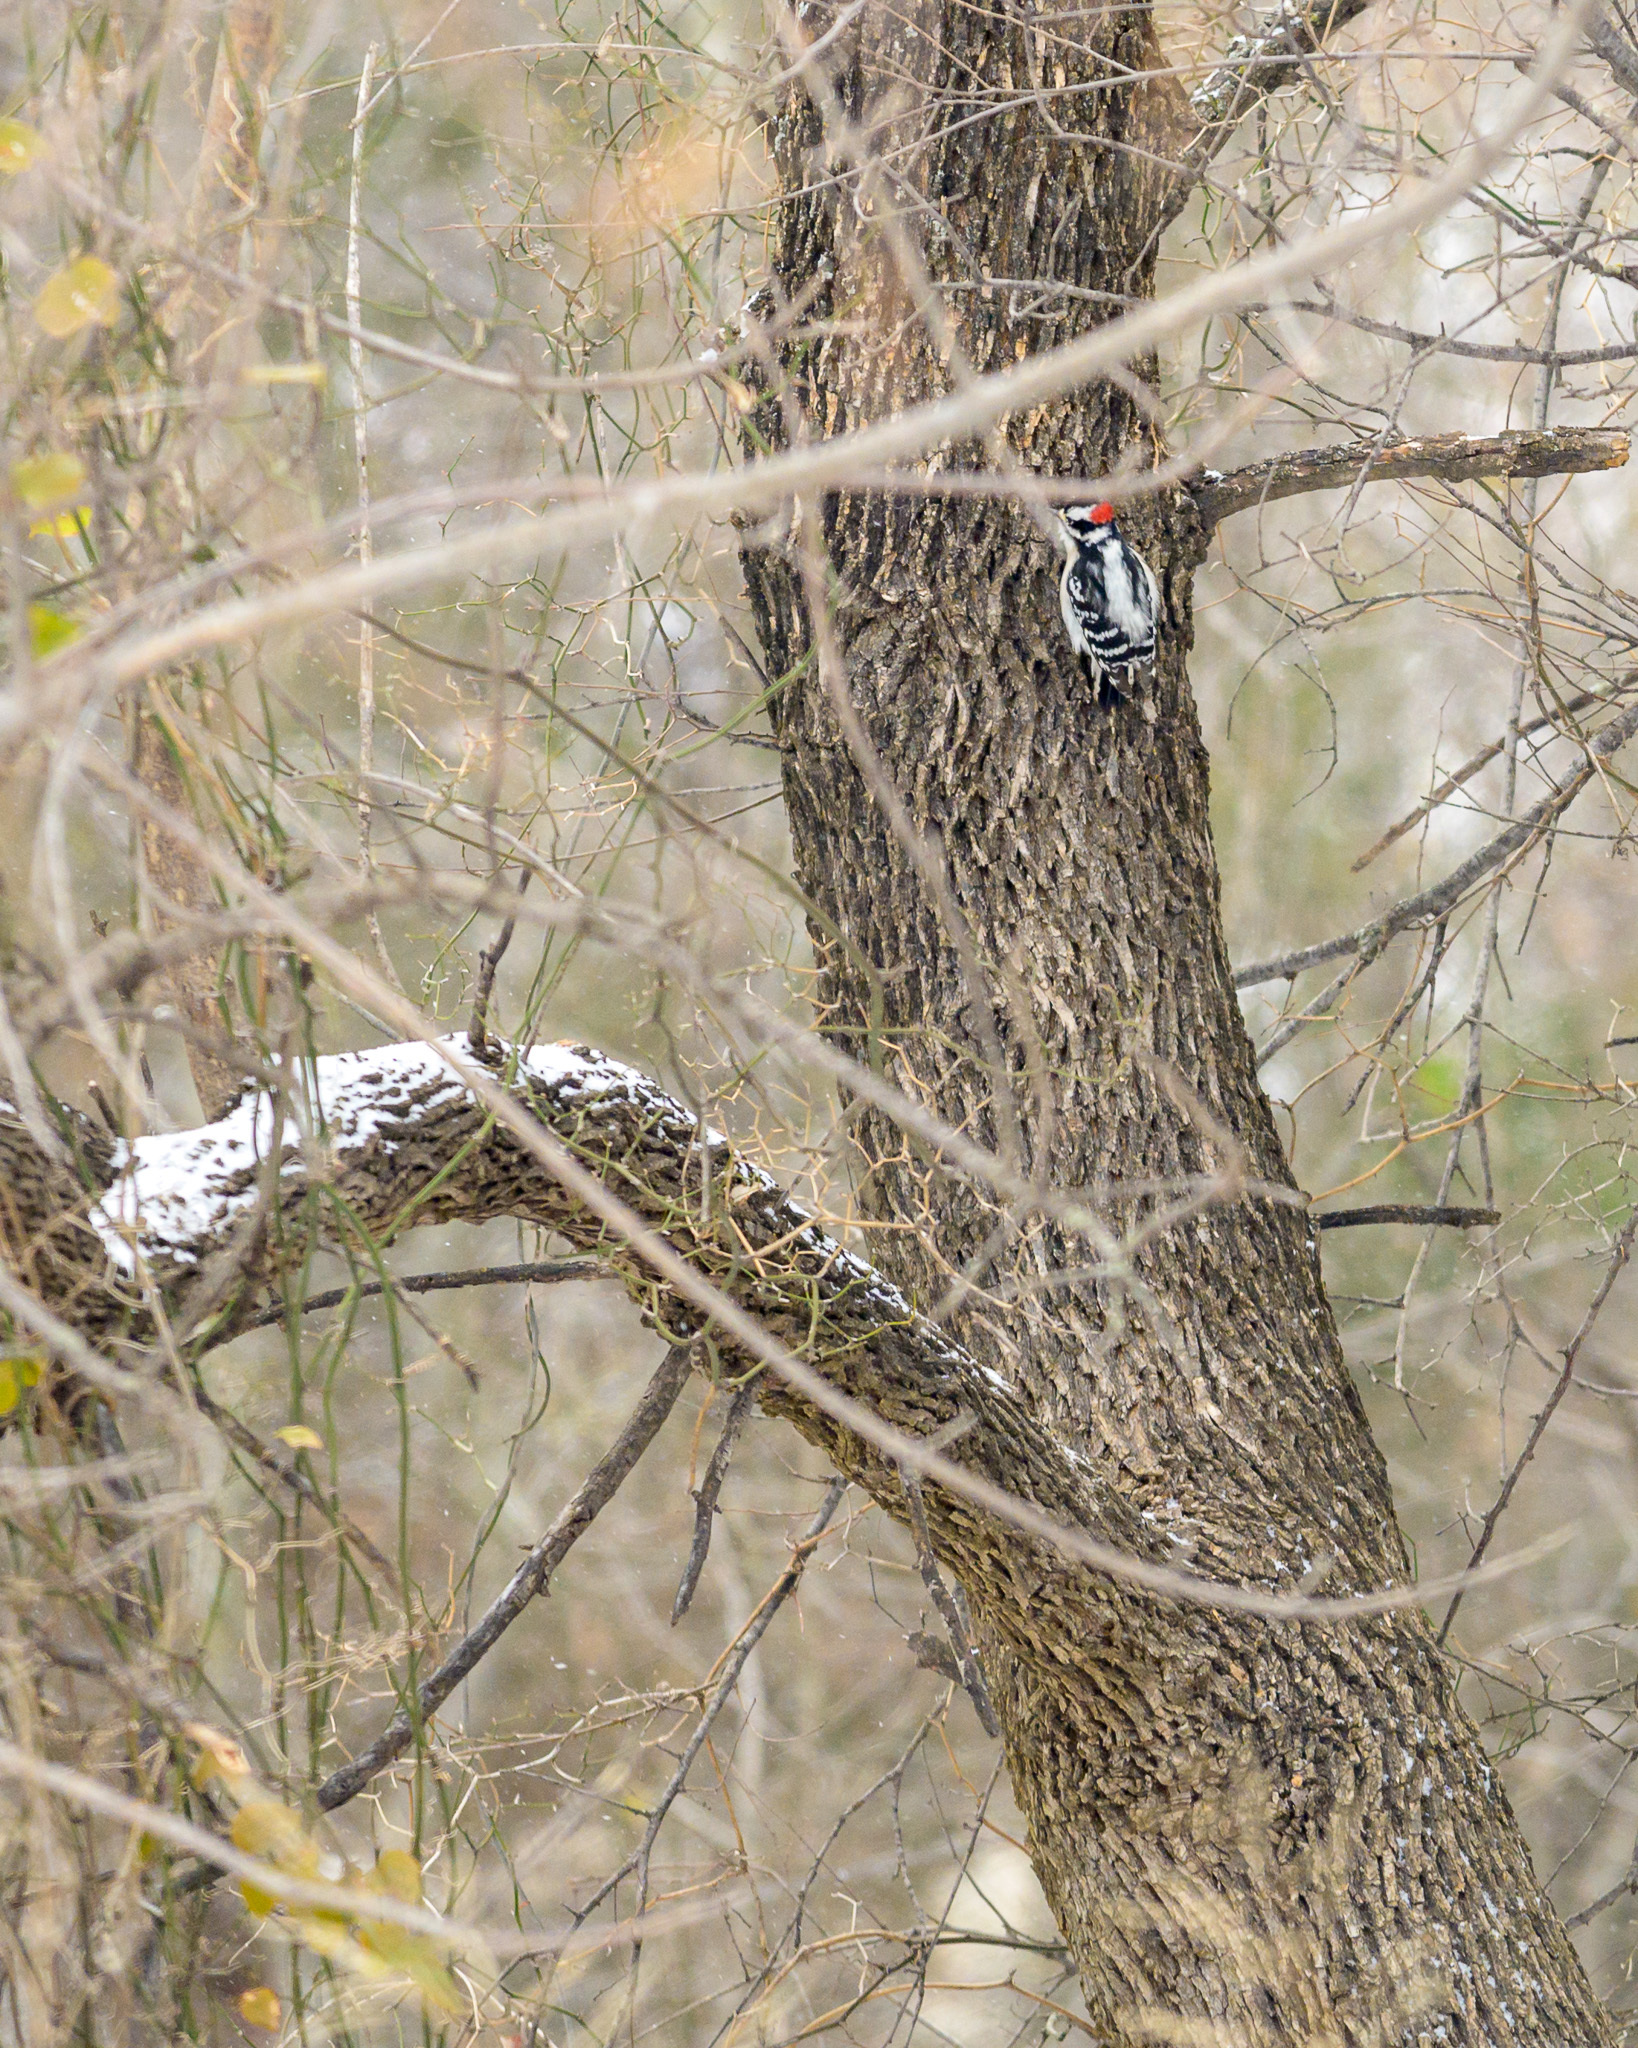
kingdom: Animalia
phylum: Chordata
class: Aves
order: Piciformes
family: Picidae
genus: Dryobates
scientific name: Dryobates pubescens
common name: Downy woodpecker
